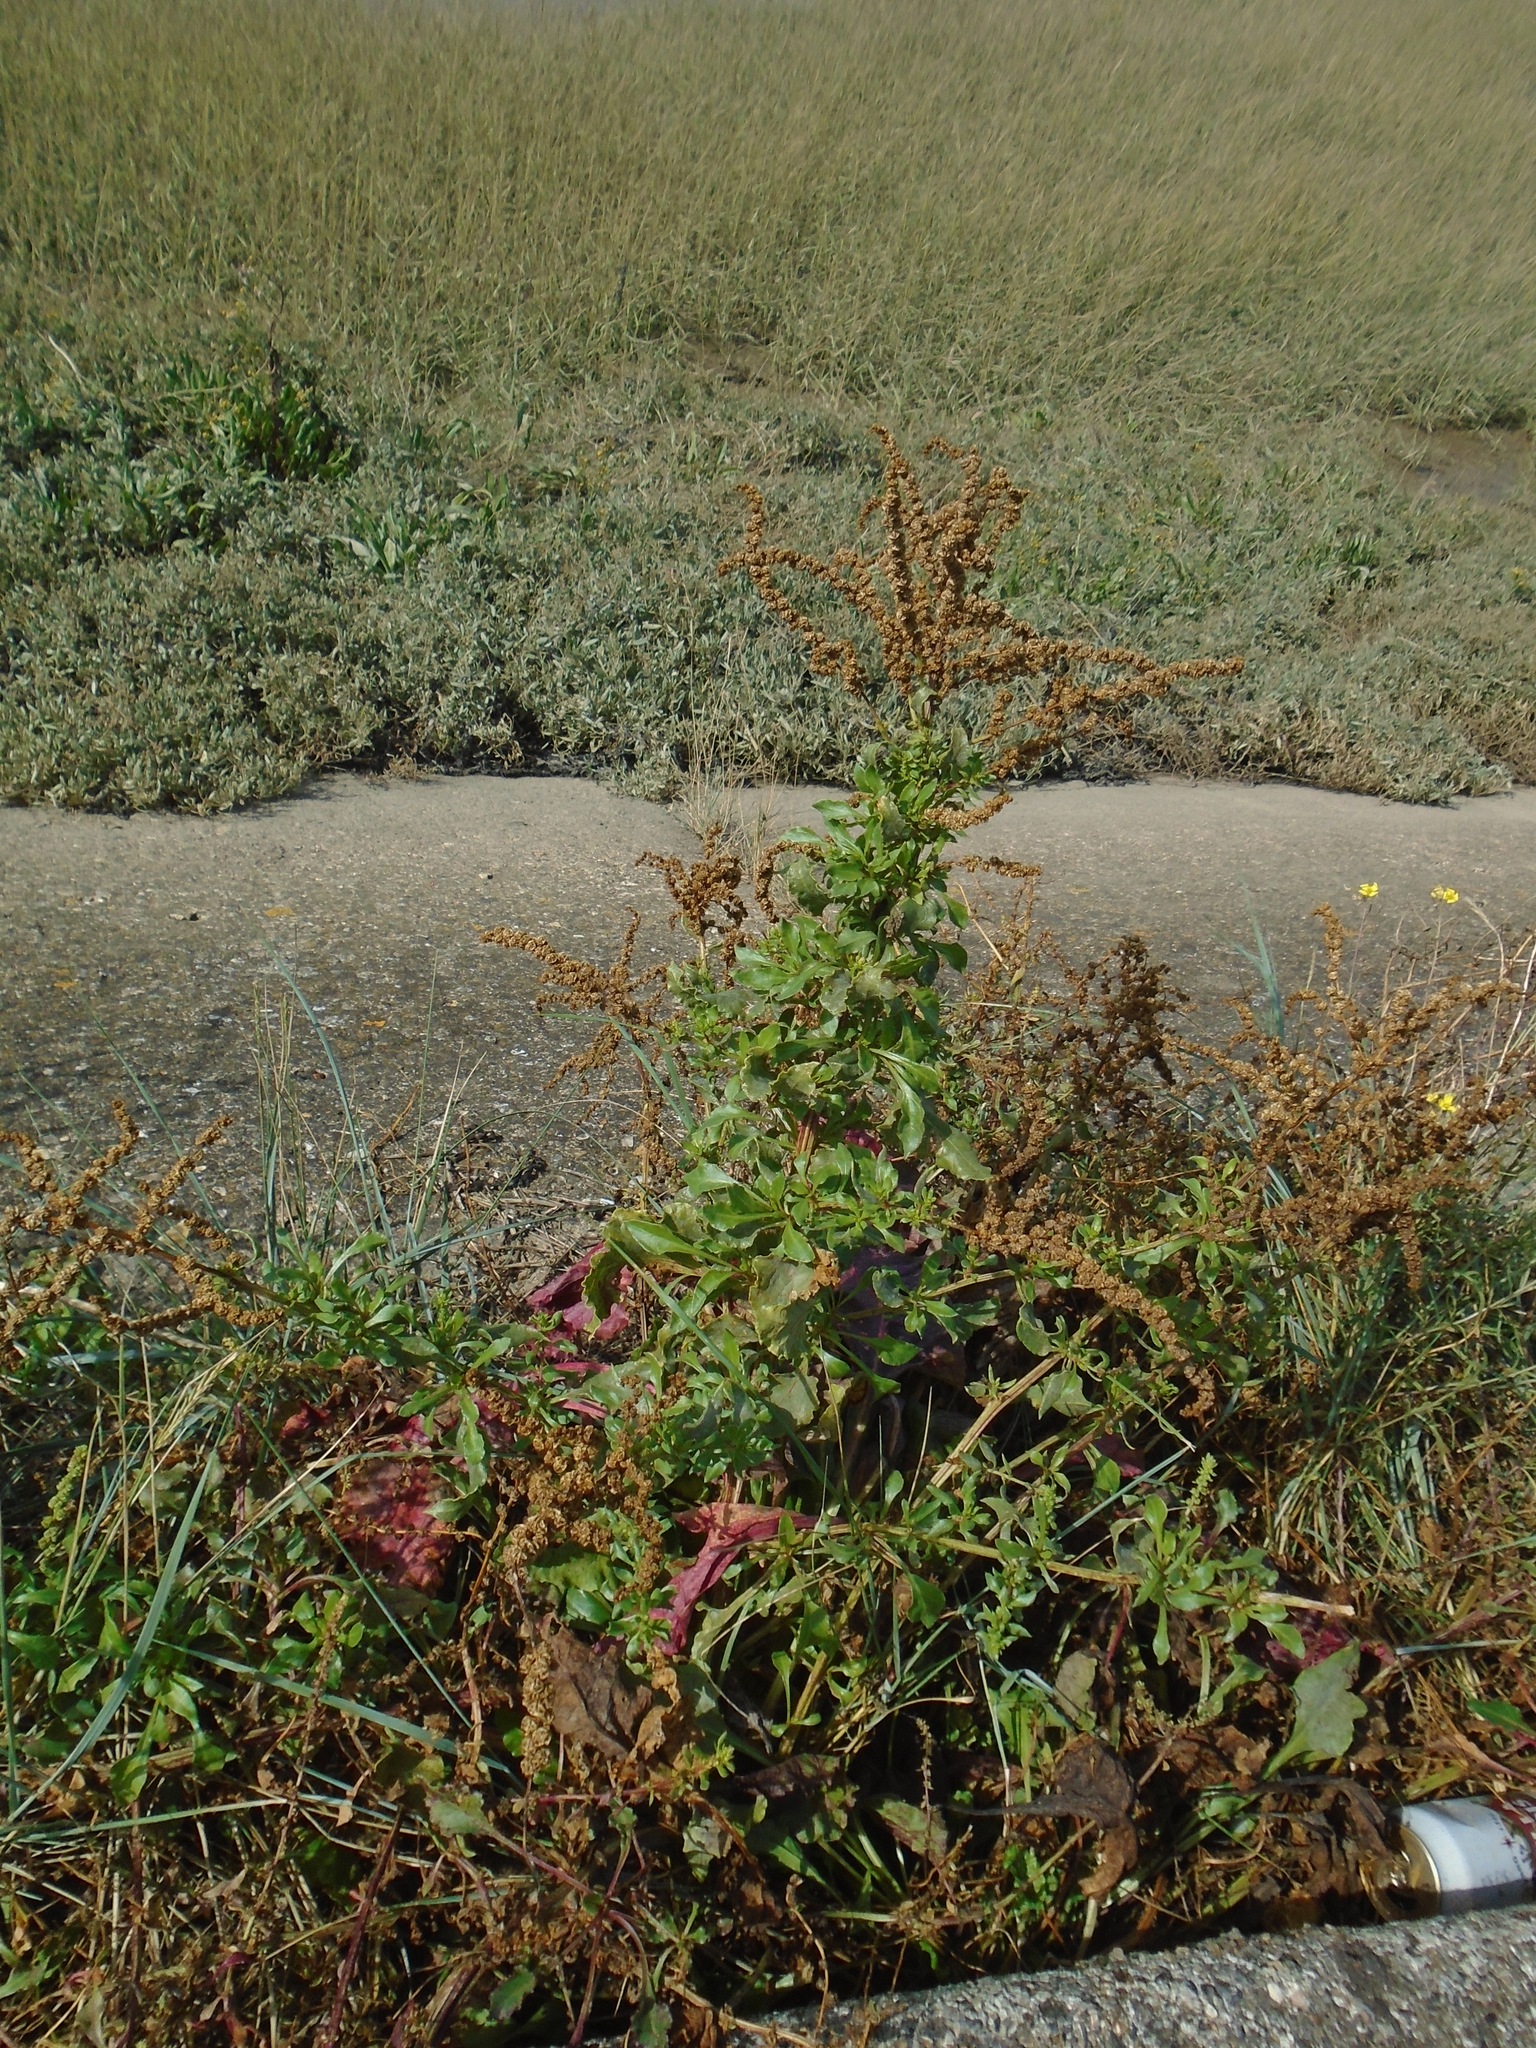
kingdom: Plantae
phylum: Tracheophyta
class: Magnoliopsida
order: Caryophyllales
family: Amaranthaceae
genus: Beta
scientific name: Beta vulgaris
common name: Beet
